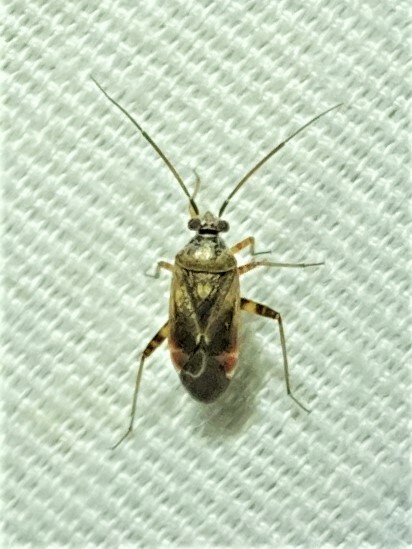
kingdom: Animalia
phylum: Arthropoda
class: Insecta
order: Hemiptera
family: Miridae
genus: Polymerus
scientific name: Polymerus basalis
